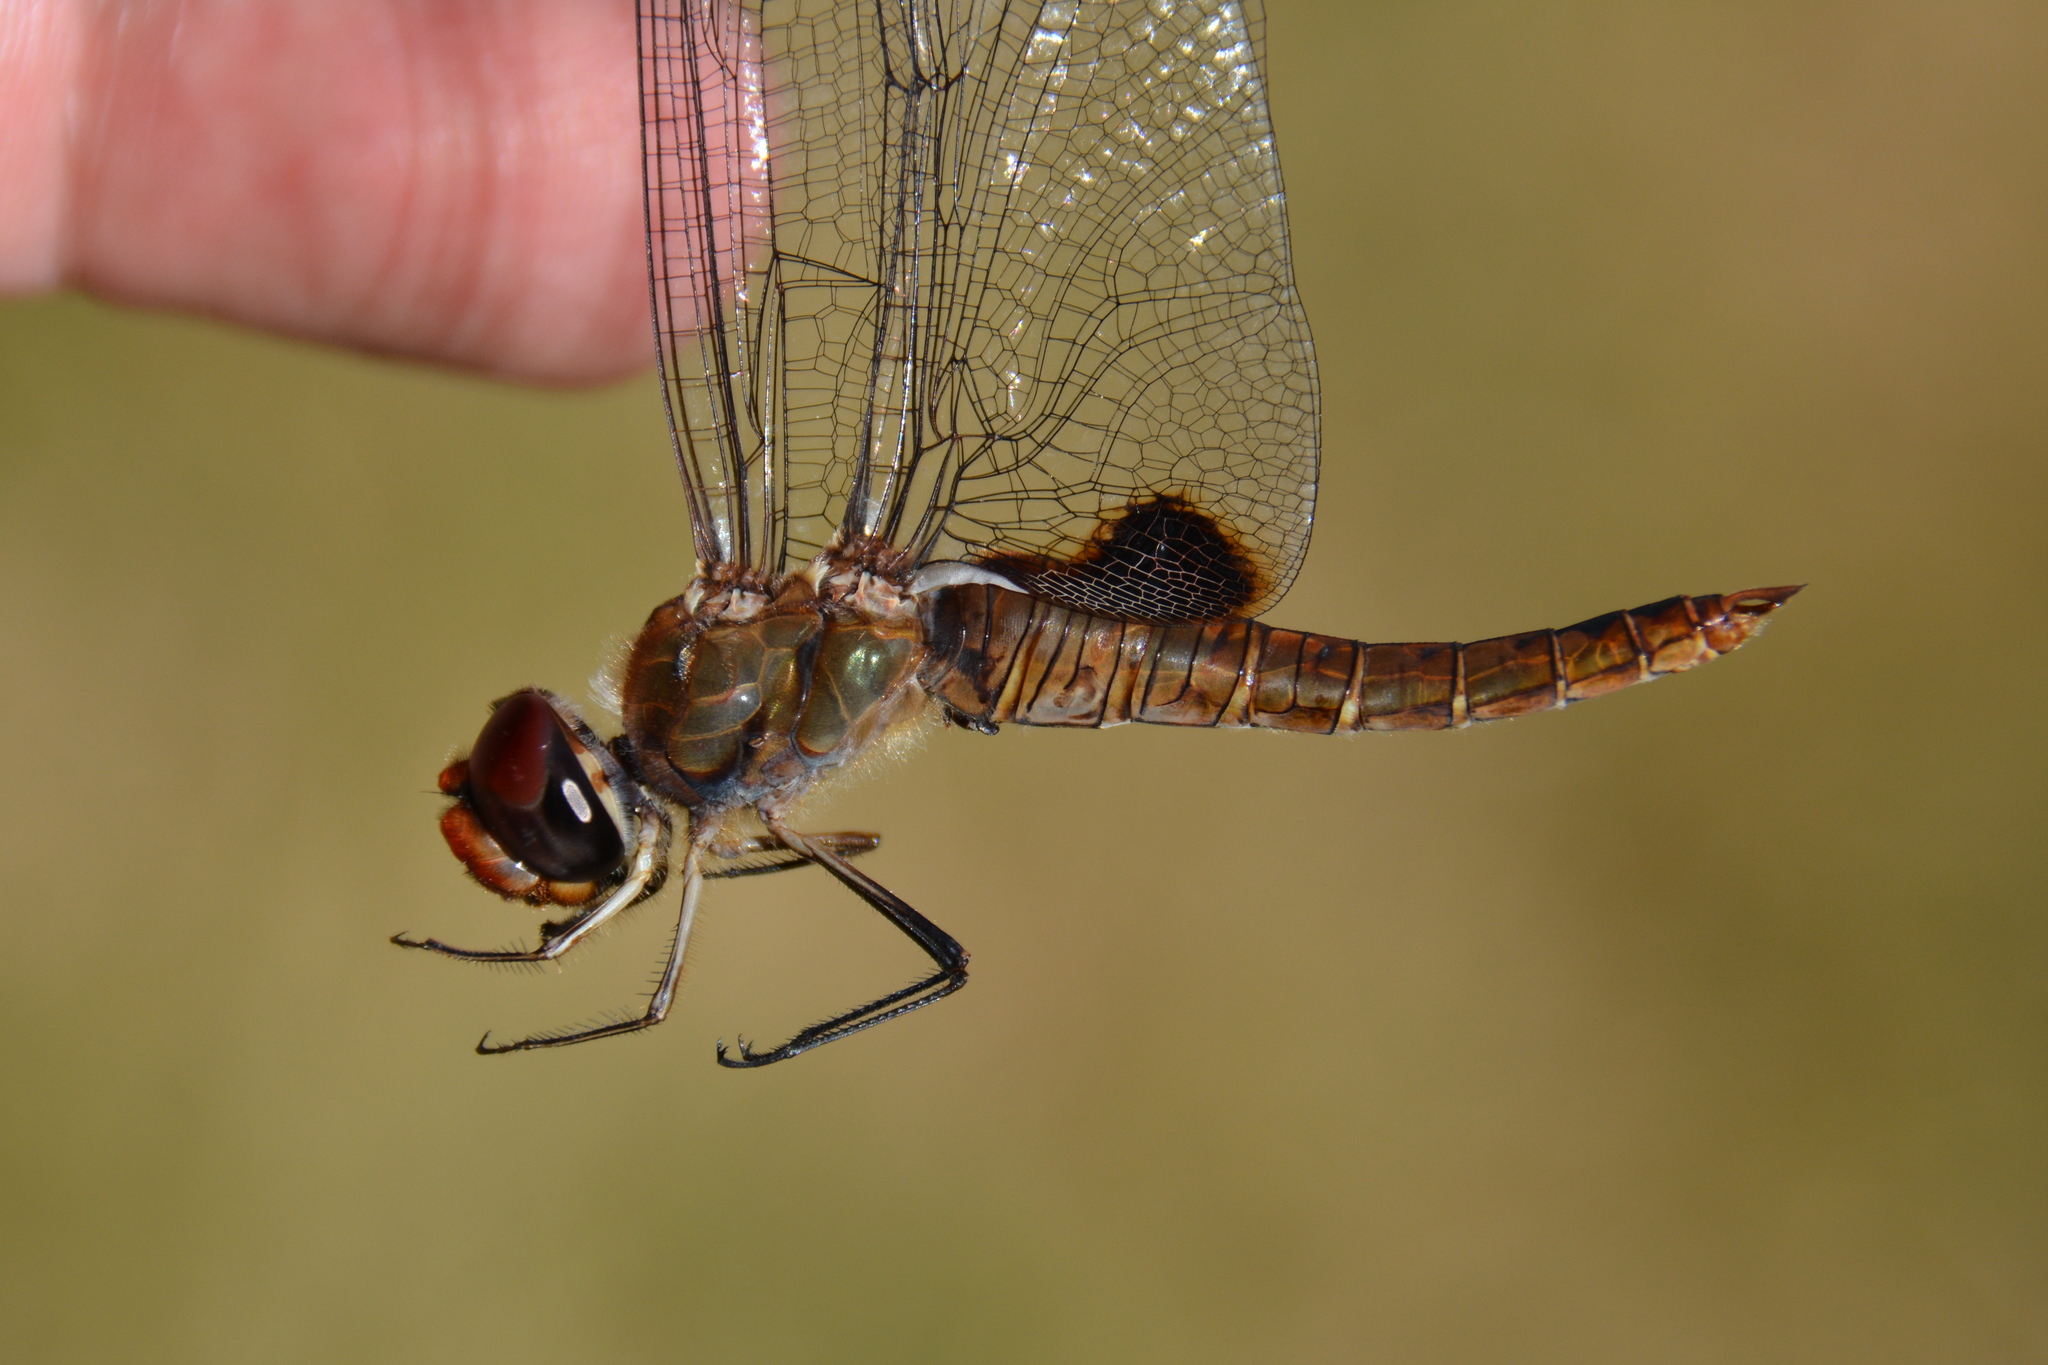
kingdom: Animalia
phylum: Arthropoda
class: Insecta
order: Odonata
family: Libellulidae
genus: Pantala
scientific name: Pantala hymenaea
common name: Spot-winged glider
